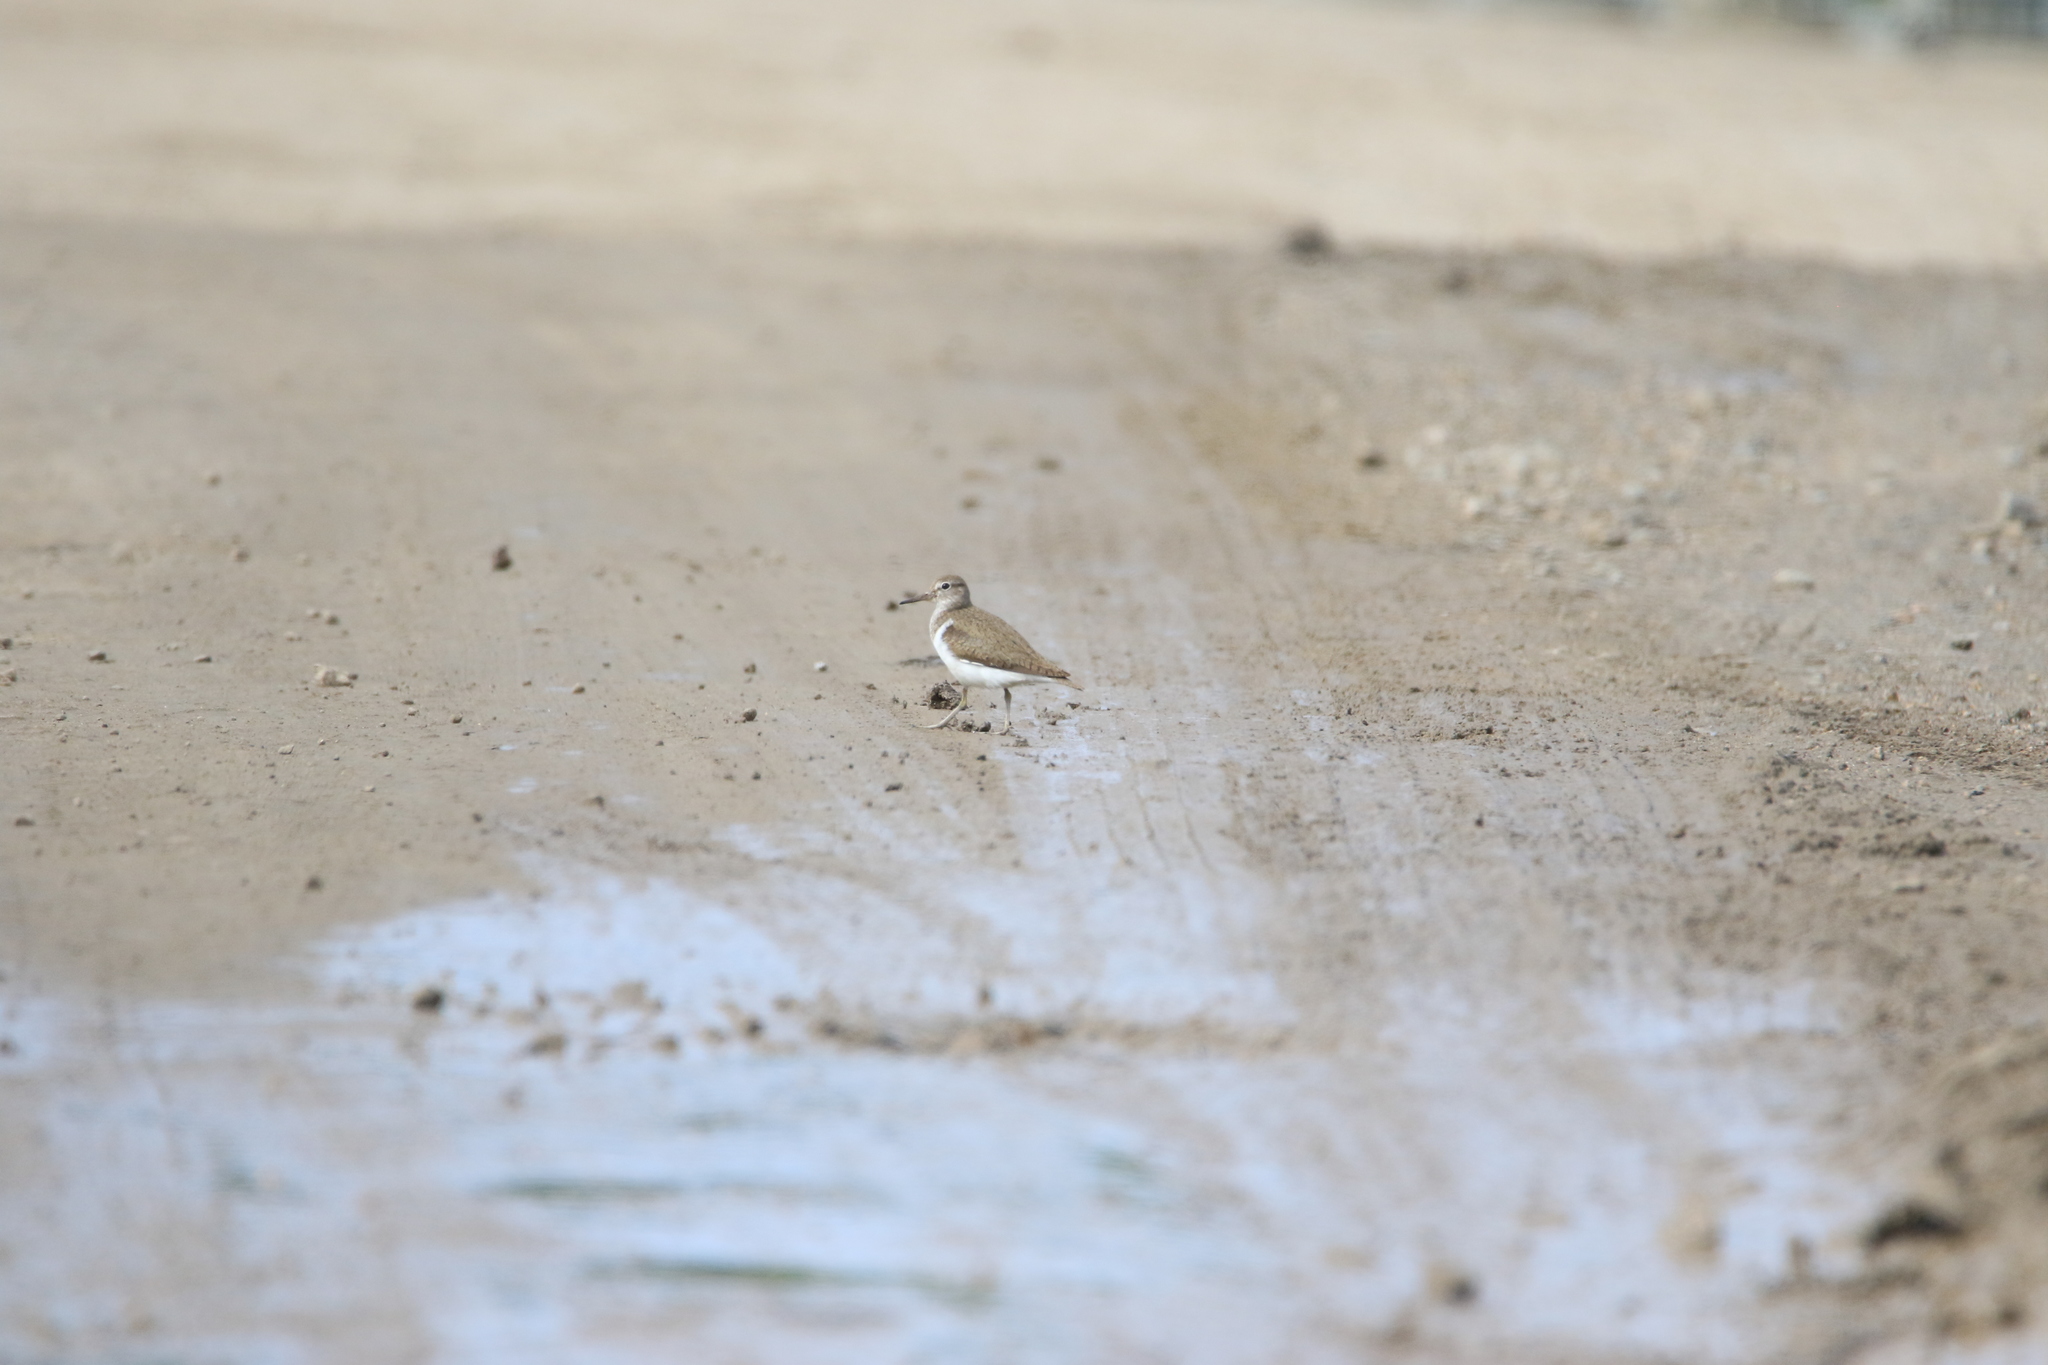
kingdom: Animalia
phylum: Chordata
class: Aves
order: Charadriiformes
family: Scolopacidae
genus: Actitis
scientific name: Actitis hypoleucos
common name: Common sandpiper
